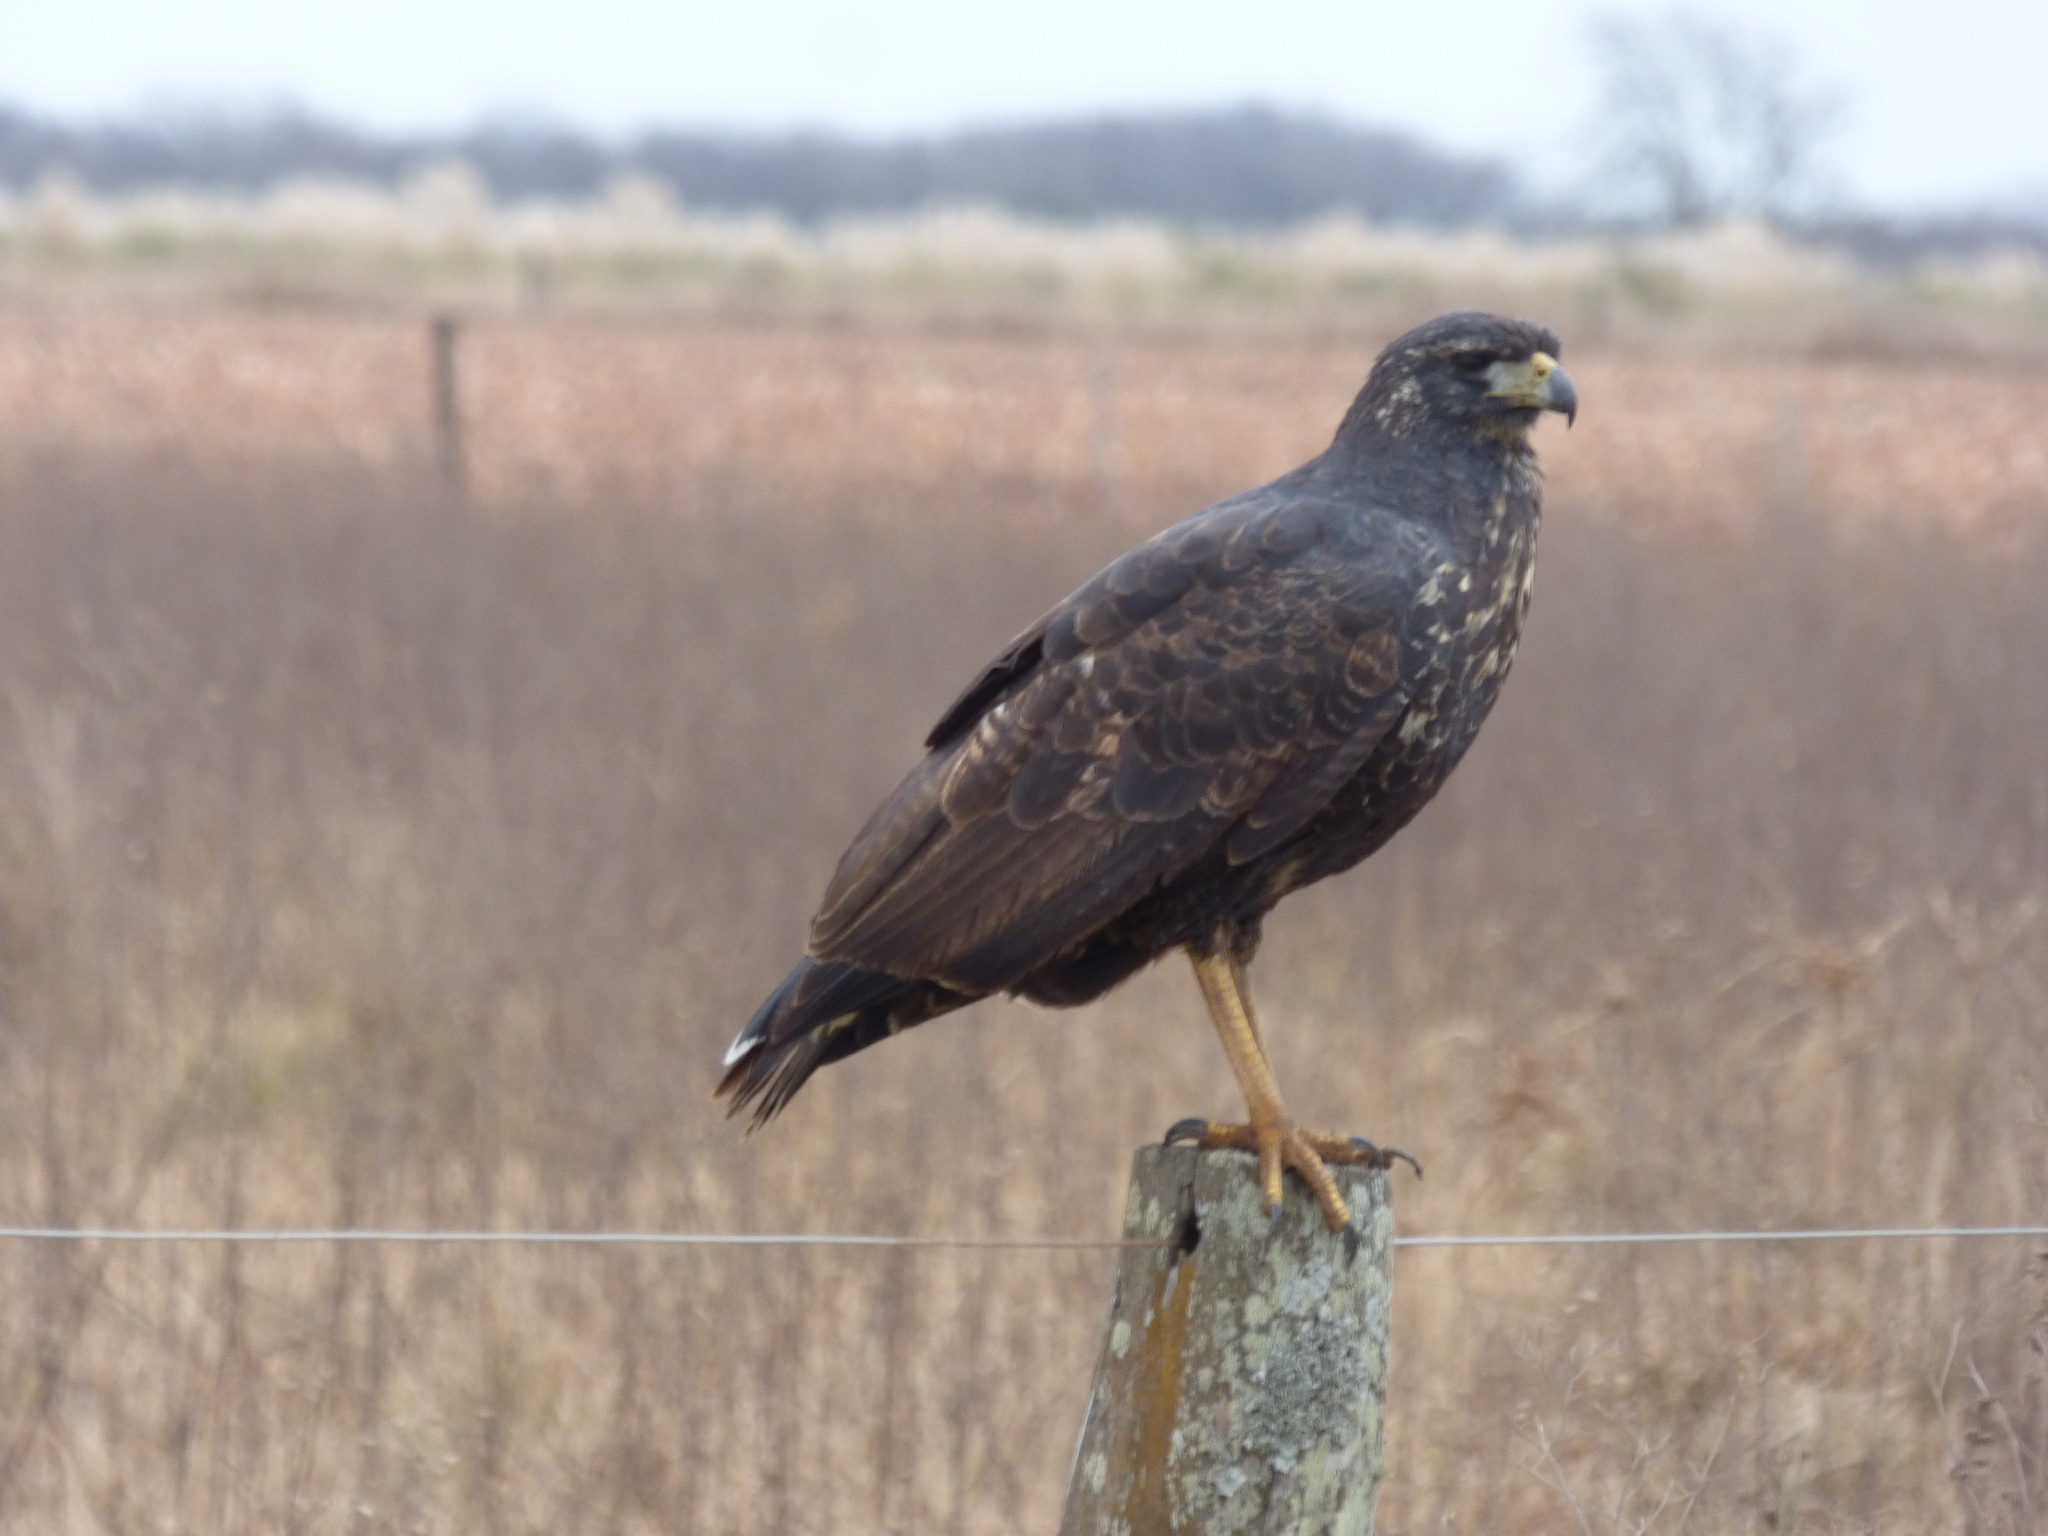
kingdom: Animalia
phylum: Chordata
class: Aves
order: Accipitriformes
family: Accipitridae
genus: Buteogallus
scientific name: Buteogallus urubitinga
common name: Great black hawk
